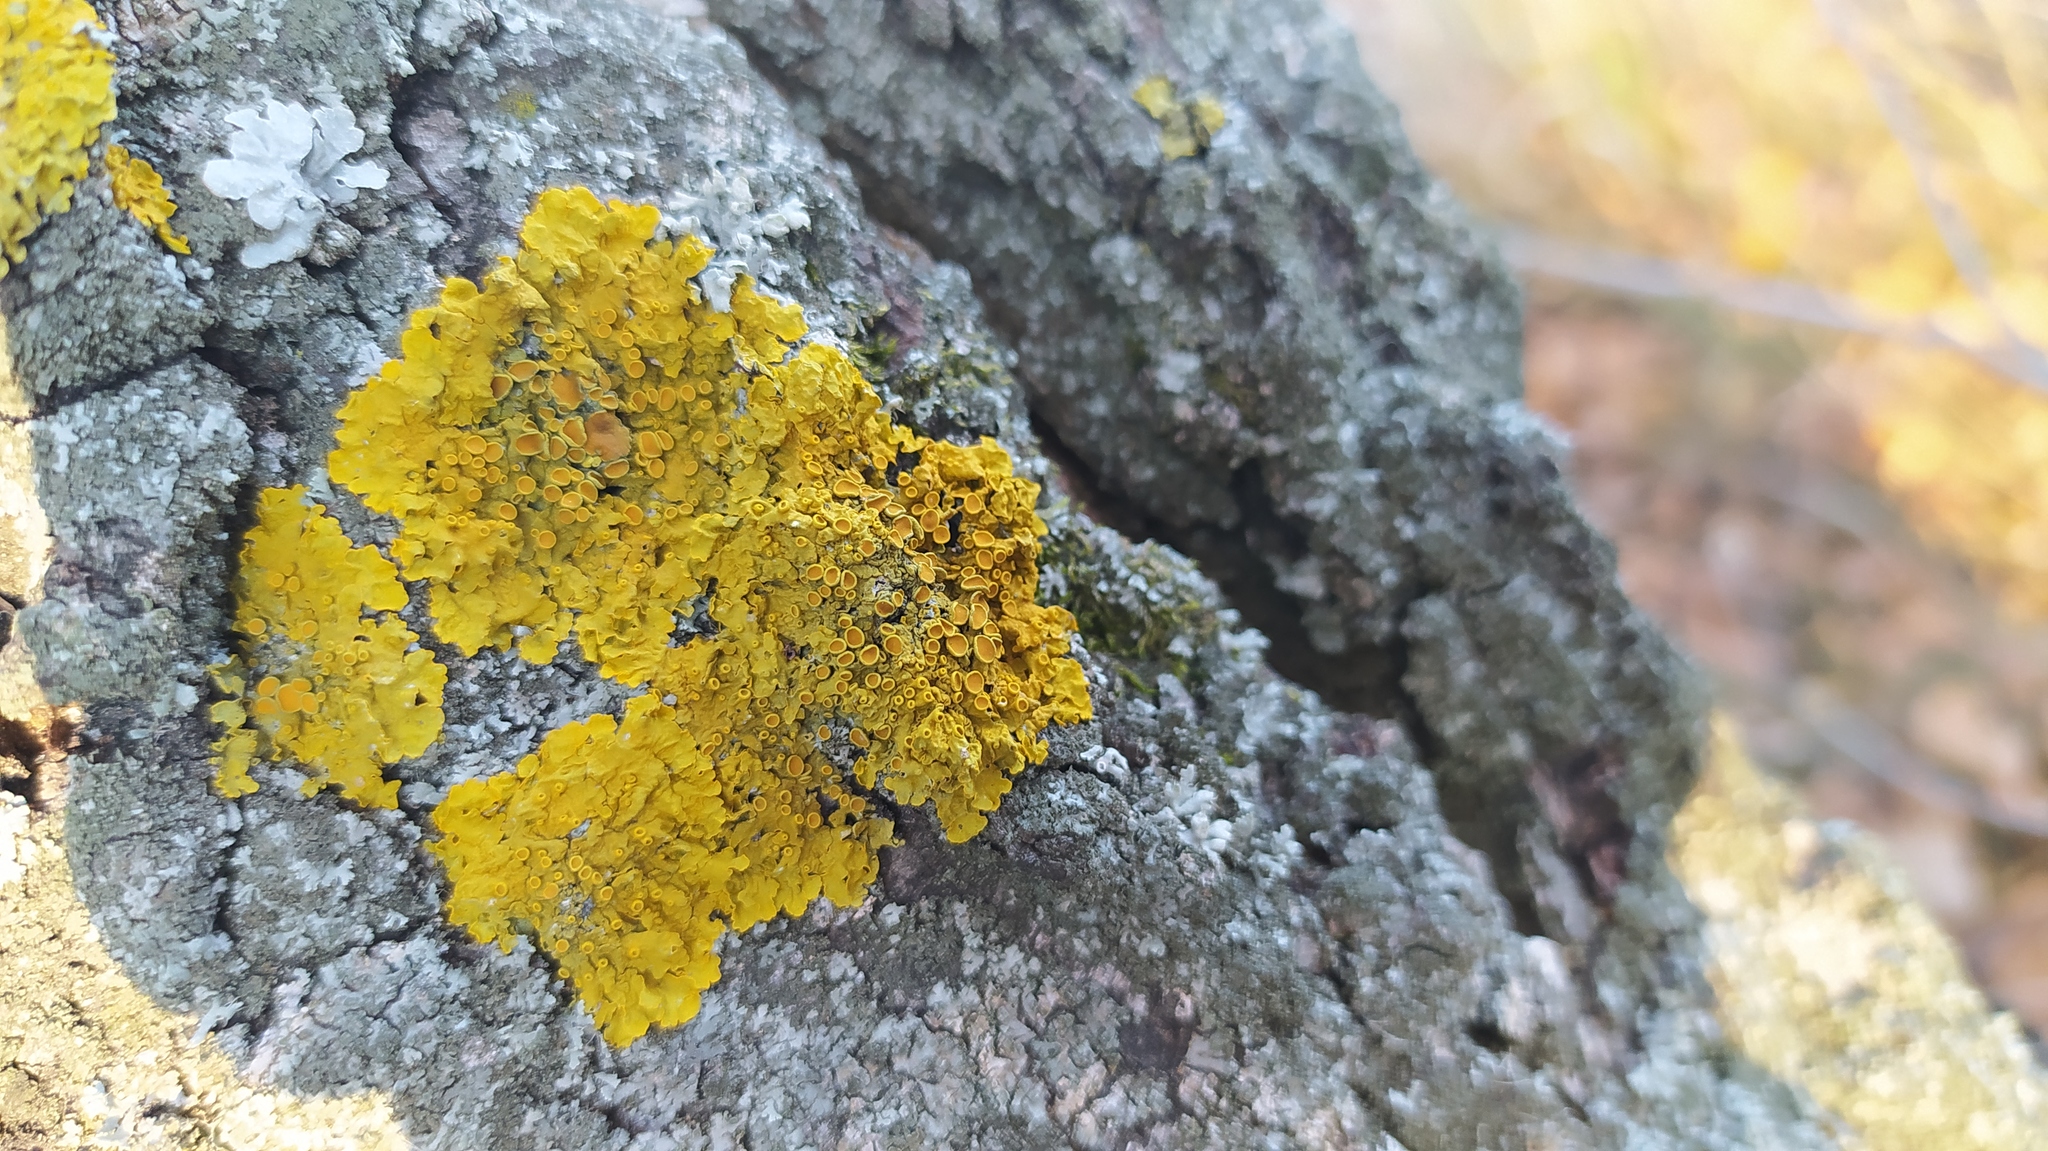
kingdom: Fungi
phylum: Ascomycota
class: Lecanoromycetes
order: Teloschistales
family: Teloschistaceae
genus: Xanthoria
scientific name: Xanthoria parietina
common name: Common orange lichen
